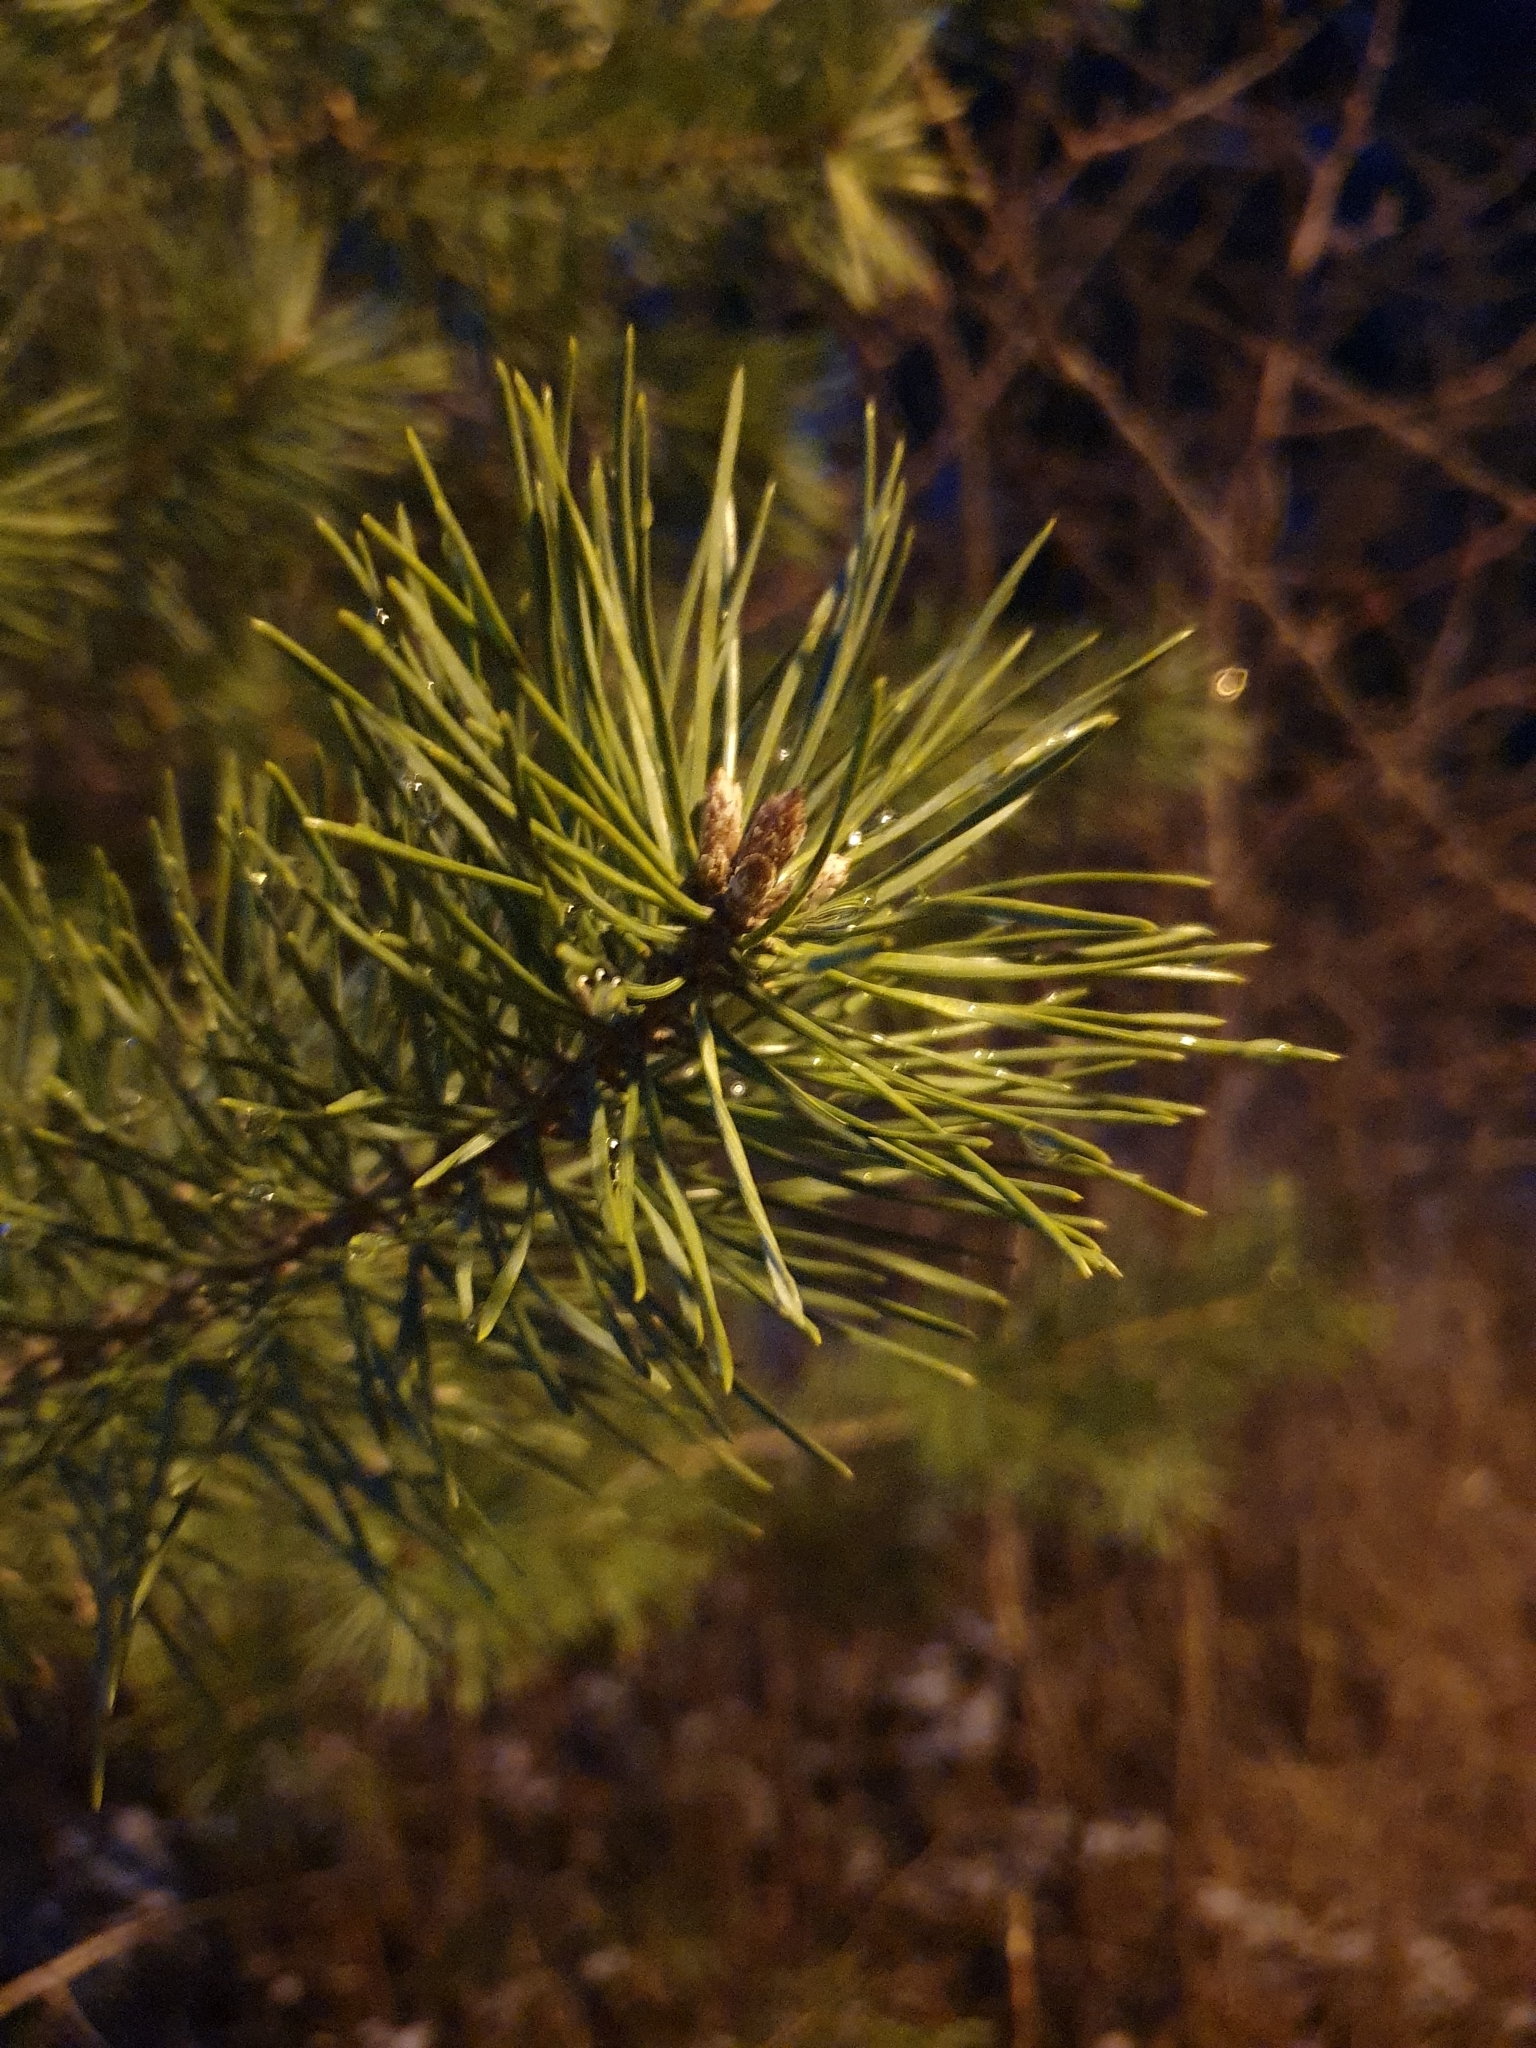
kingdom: Plantae
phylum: Tracheophyta
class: Pinopsida
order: Pinales
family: Pinaceae
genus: Pinus
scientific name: Pinus sylvestris
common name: Scots pine
